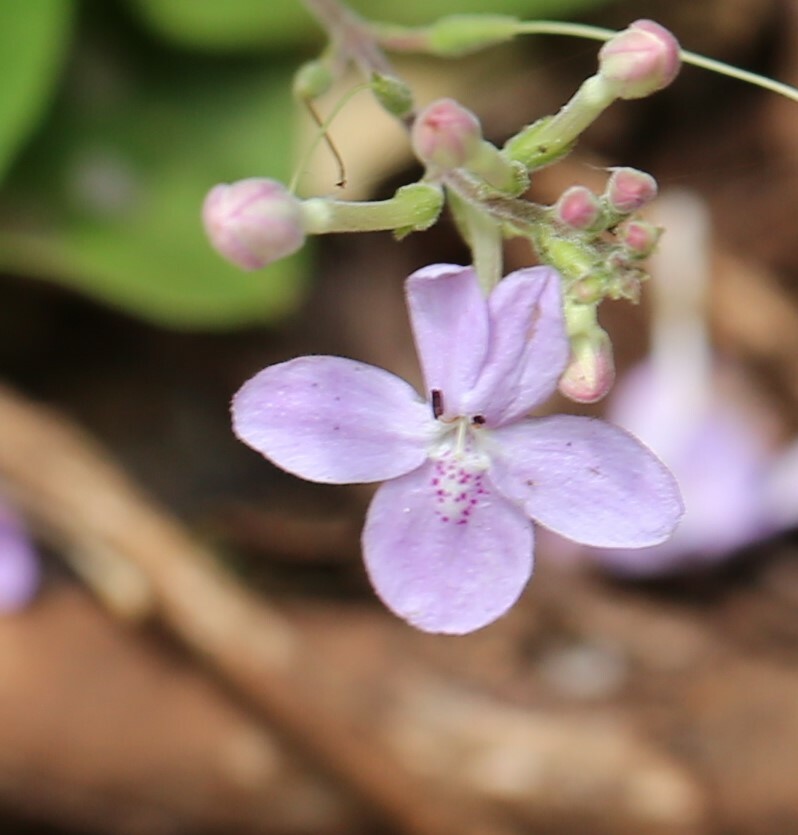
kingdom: Plantae
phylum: Tracheophyta
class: Magnoliopsida
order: Lamiales
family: Acanthaceae
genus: Pseuderanthemum
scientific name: Pseuderanthemum variabile
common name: Night and afternoon
